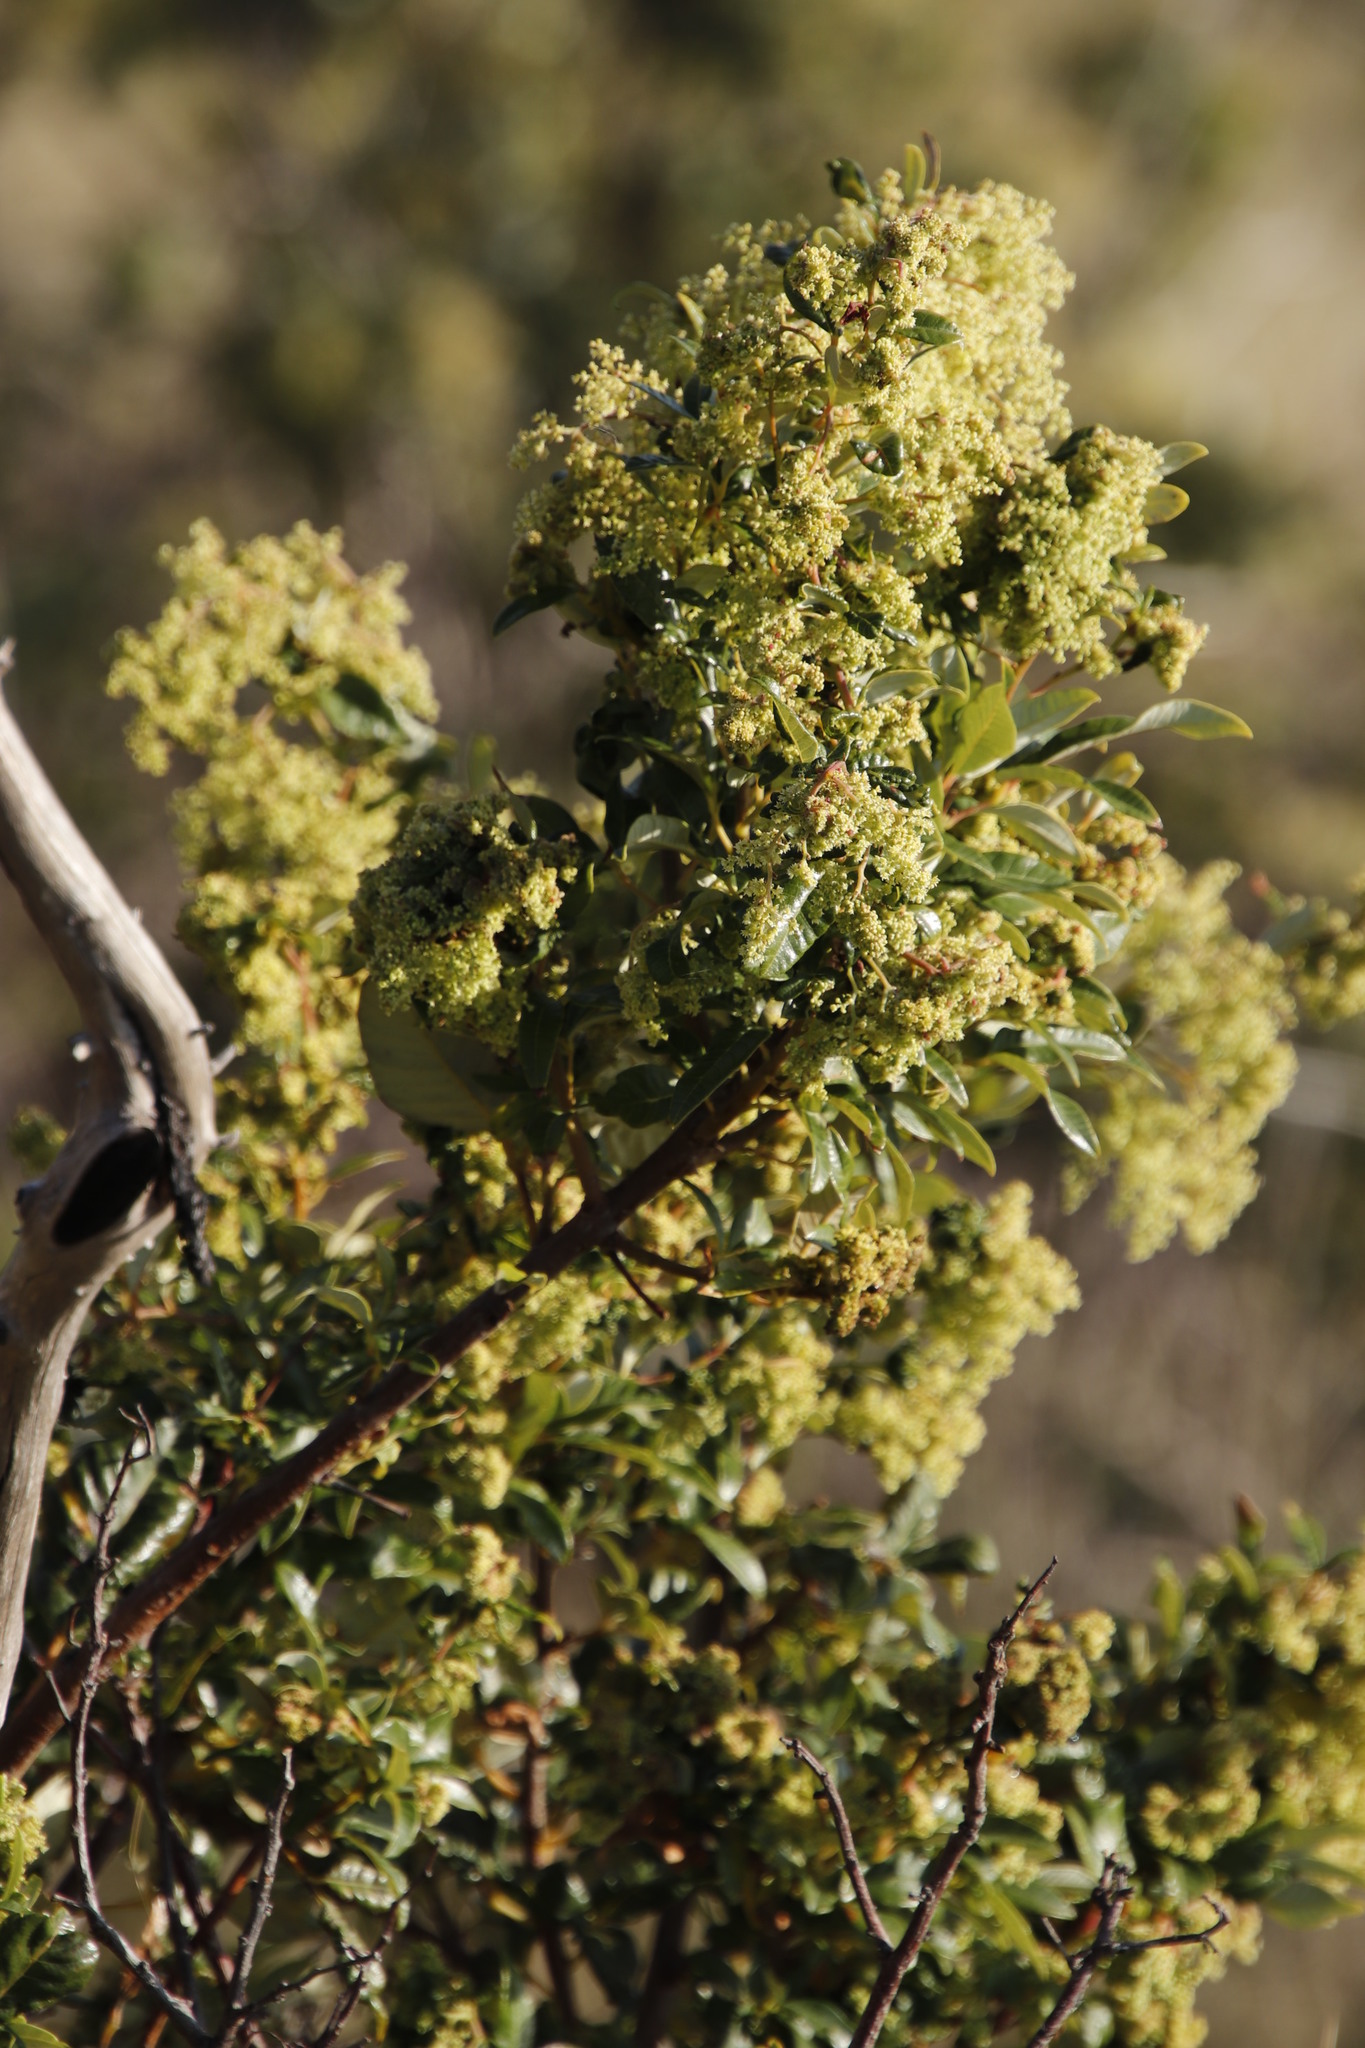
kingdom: Plantae
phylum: Tracheophyta
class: Magnoliopsida
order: Sapindales
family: Anacardiaceae
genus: Searsia
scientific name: Searsia tomentosa
